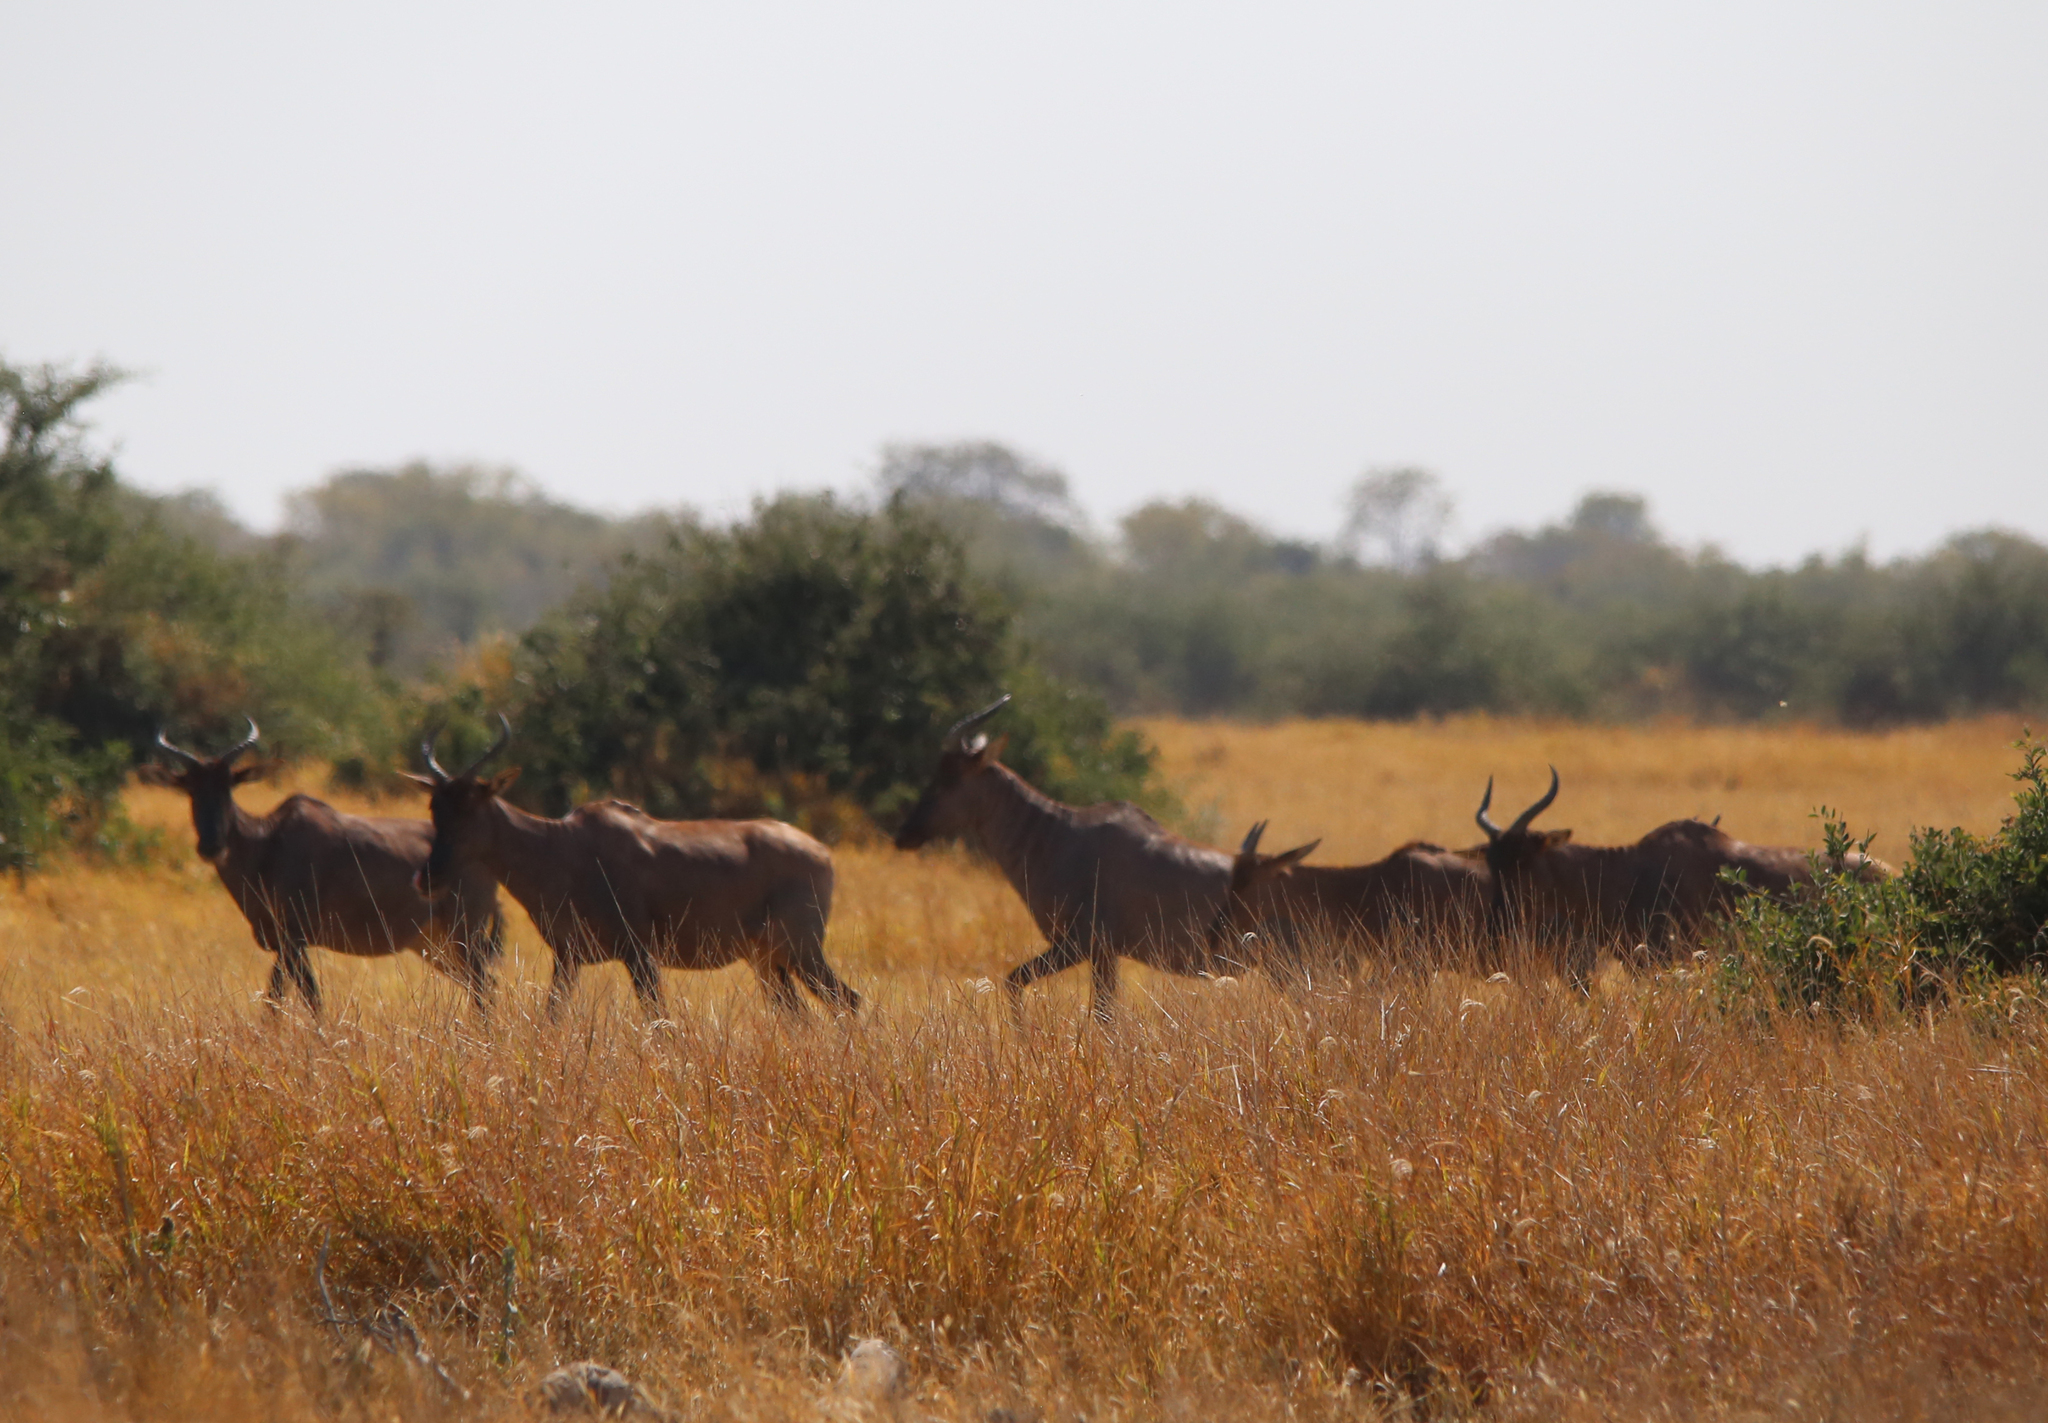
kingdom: Animalia
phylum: Chordata
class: Mammalia
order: Artiodactyla
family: Bovidae
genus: Damaliscus
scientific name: Damaliscus lunatus
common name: Common tsessebe
